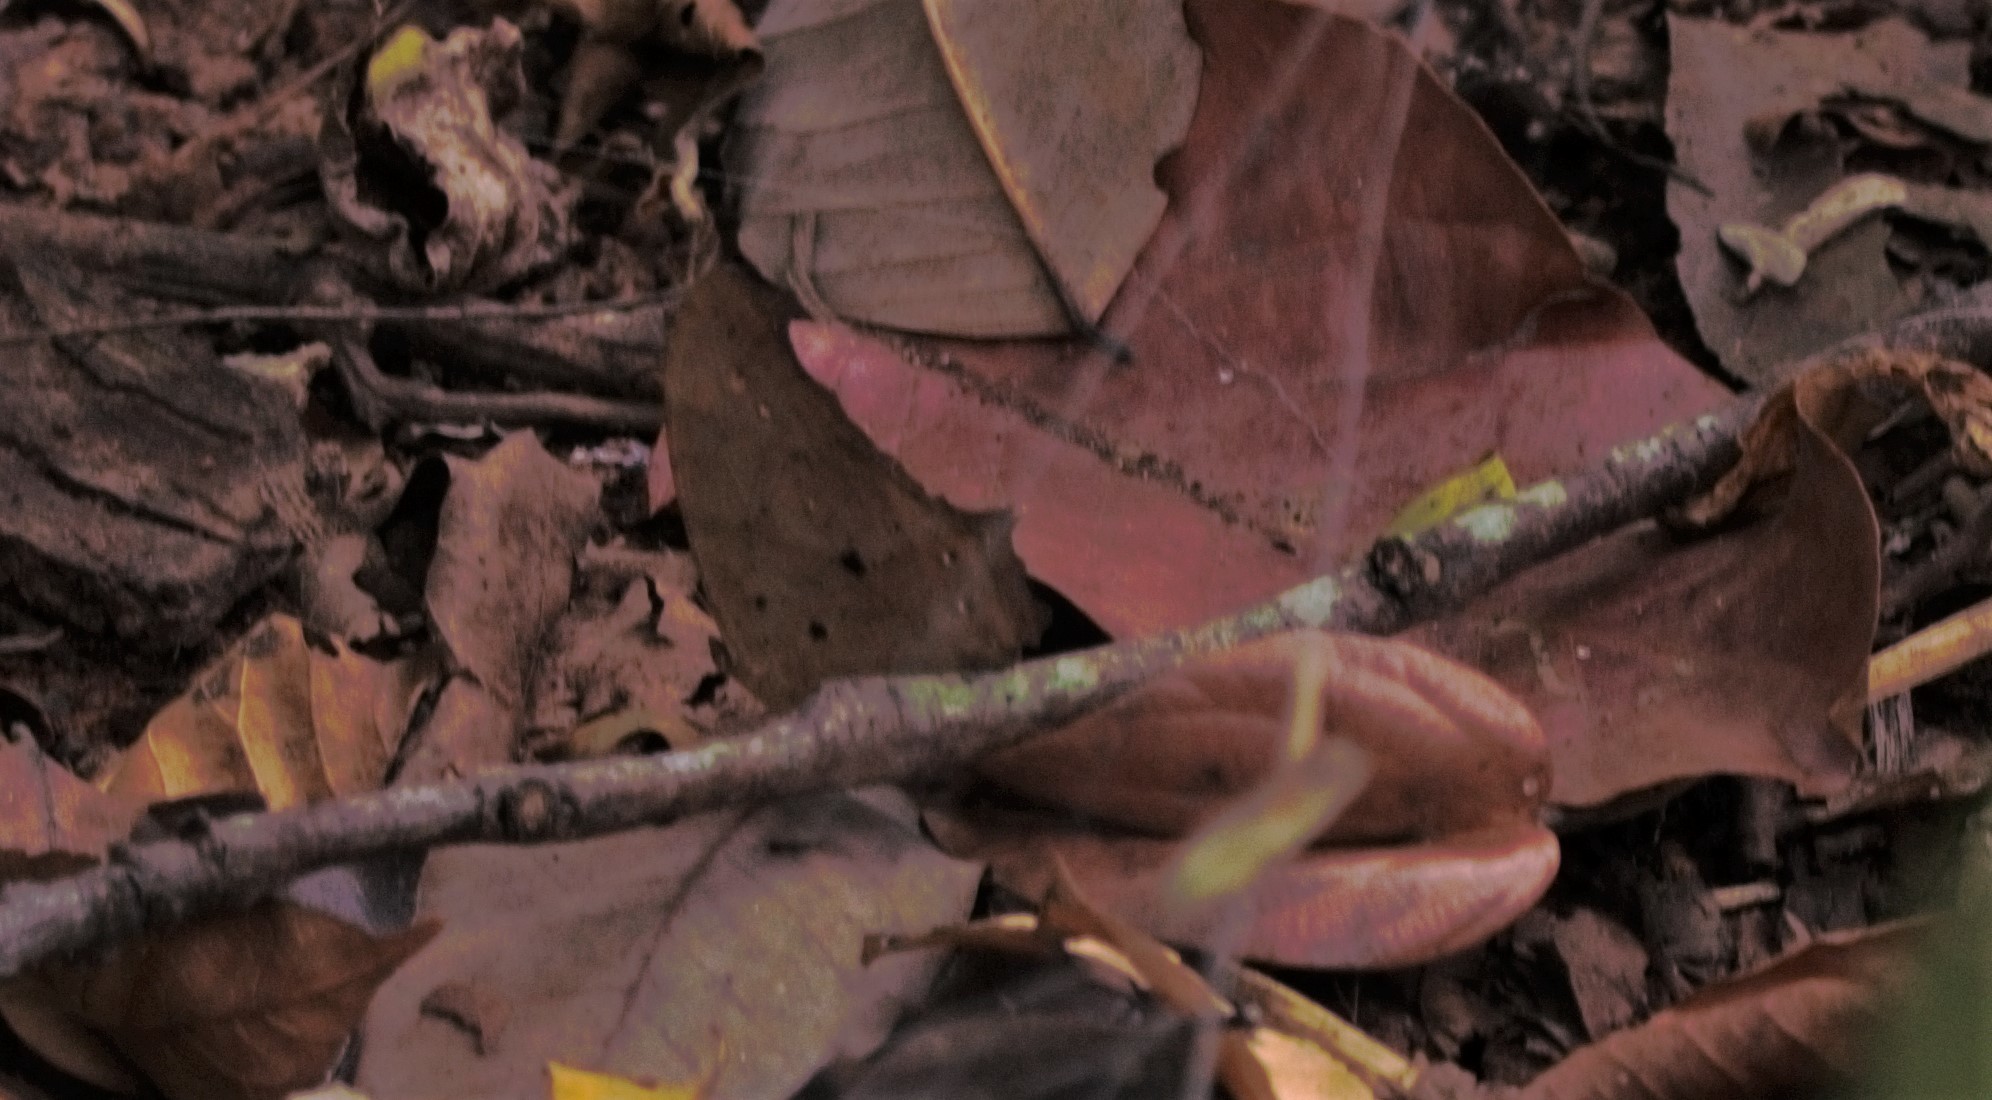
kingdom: Animalia
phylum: Arthropoda
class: Insecta
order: Lepidoptera
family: Nymphalidae
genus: Melanitis
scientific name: Melanitis leda
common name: Twilight brown
